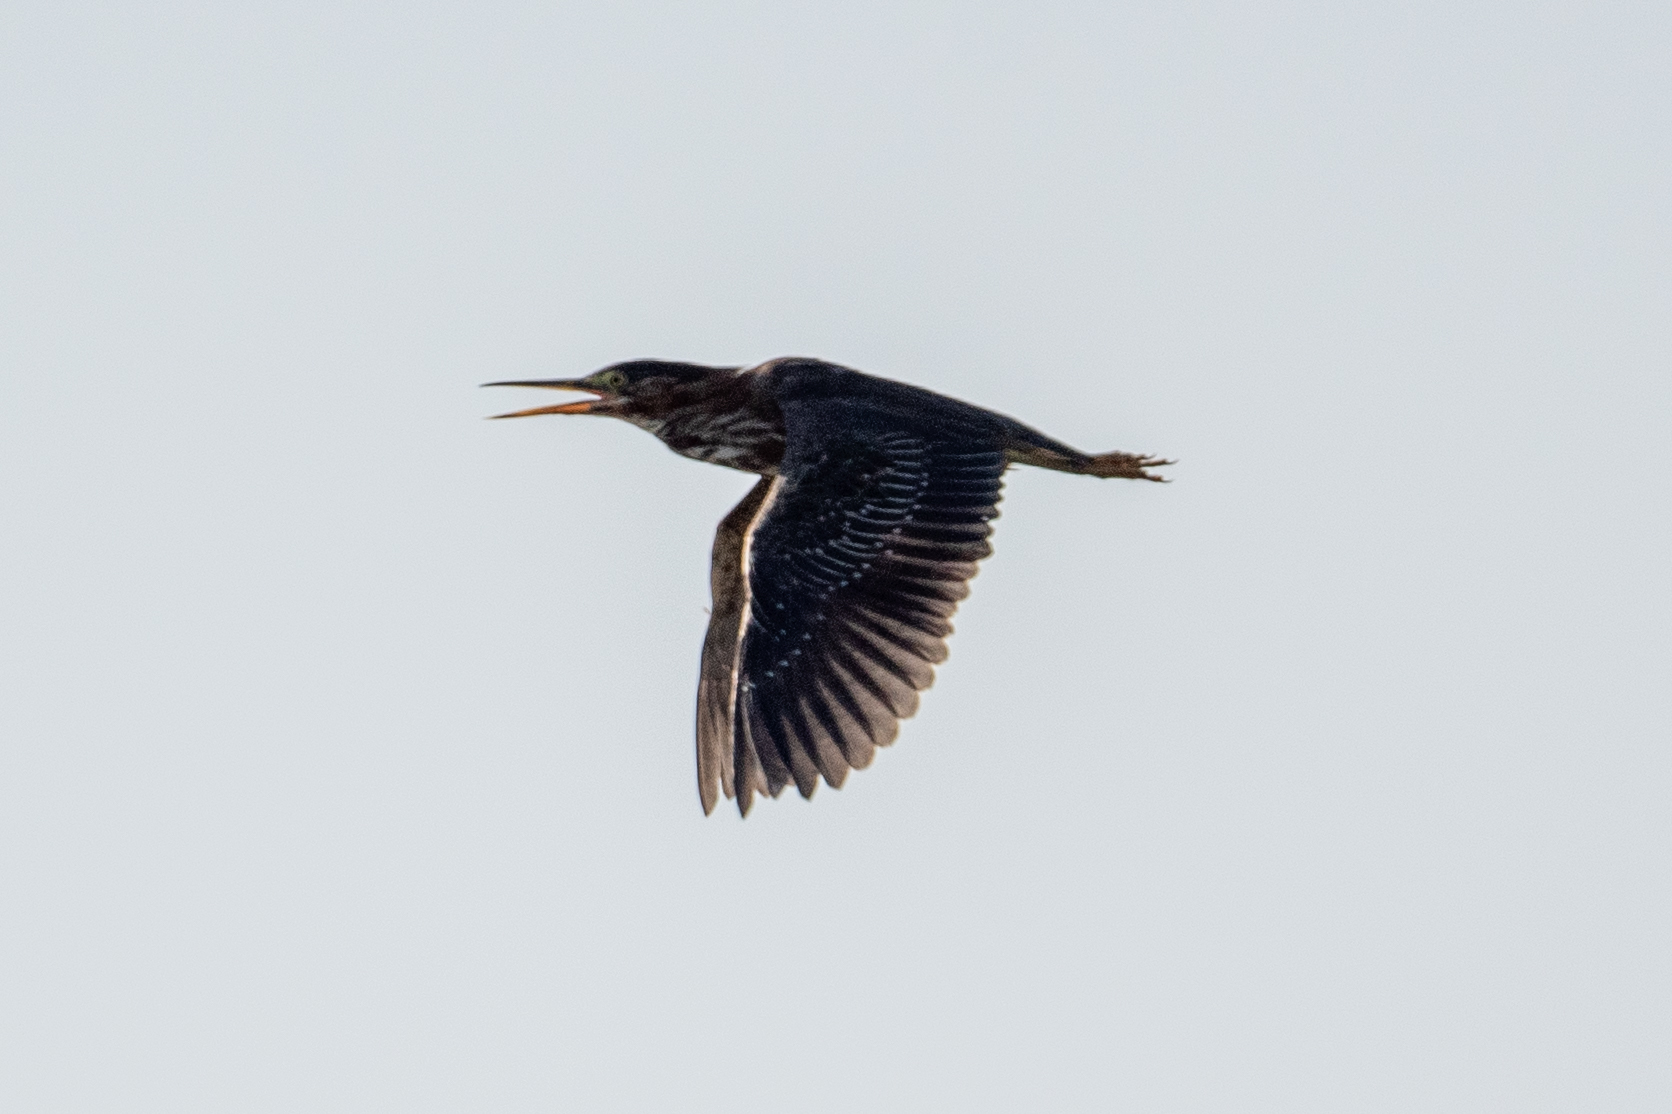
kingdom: Animalia
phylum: Chordata
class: Aves
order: Pelecaniformes
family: Ardeidae
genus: Butorides
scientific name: Butorides virescens
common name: Green heron
